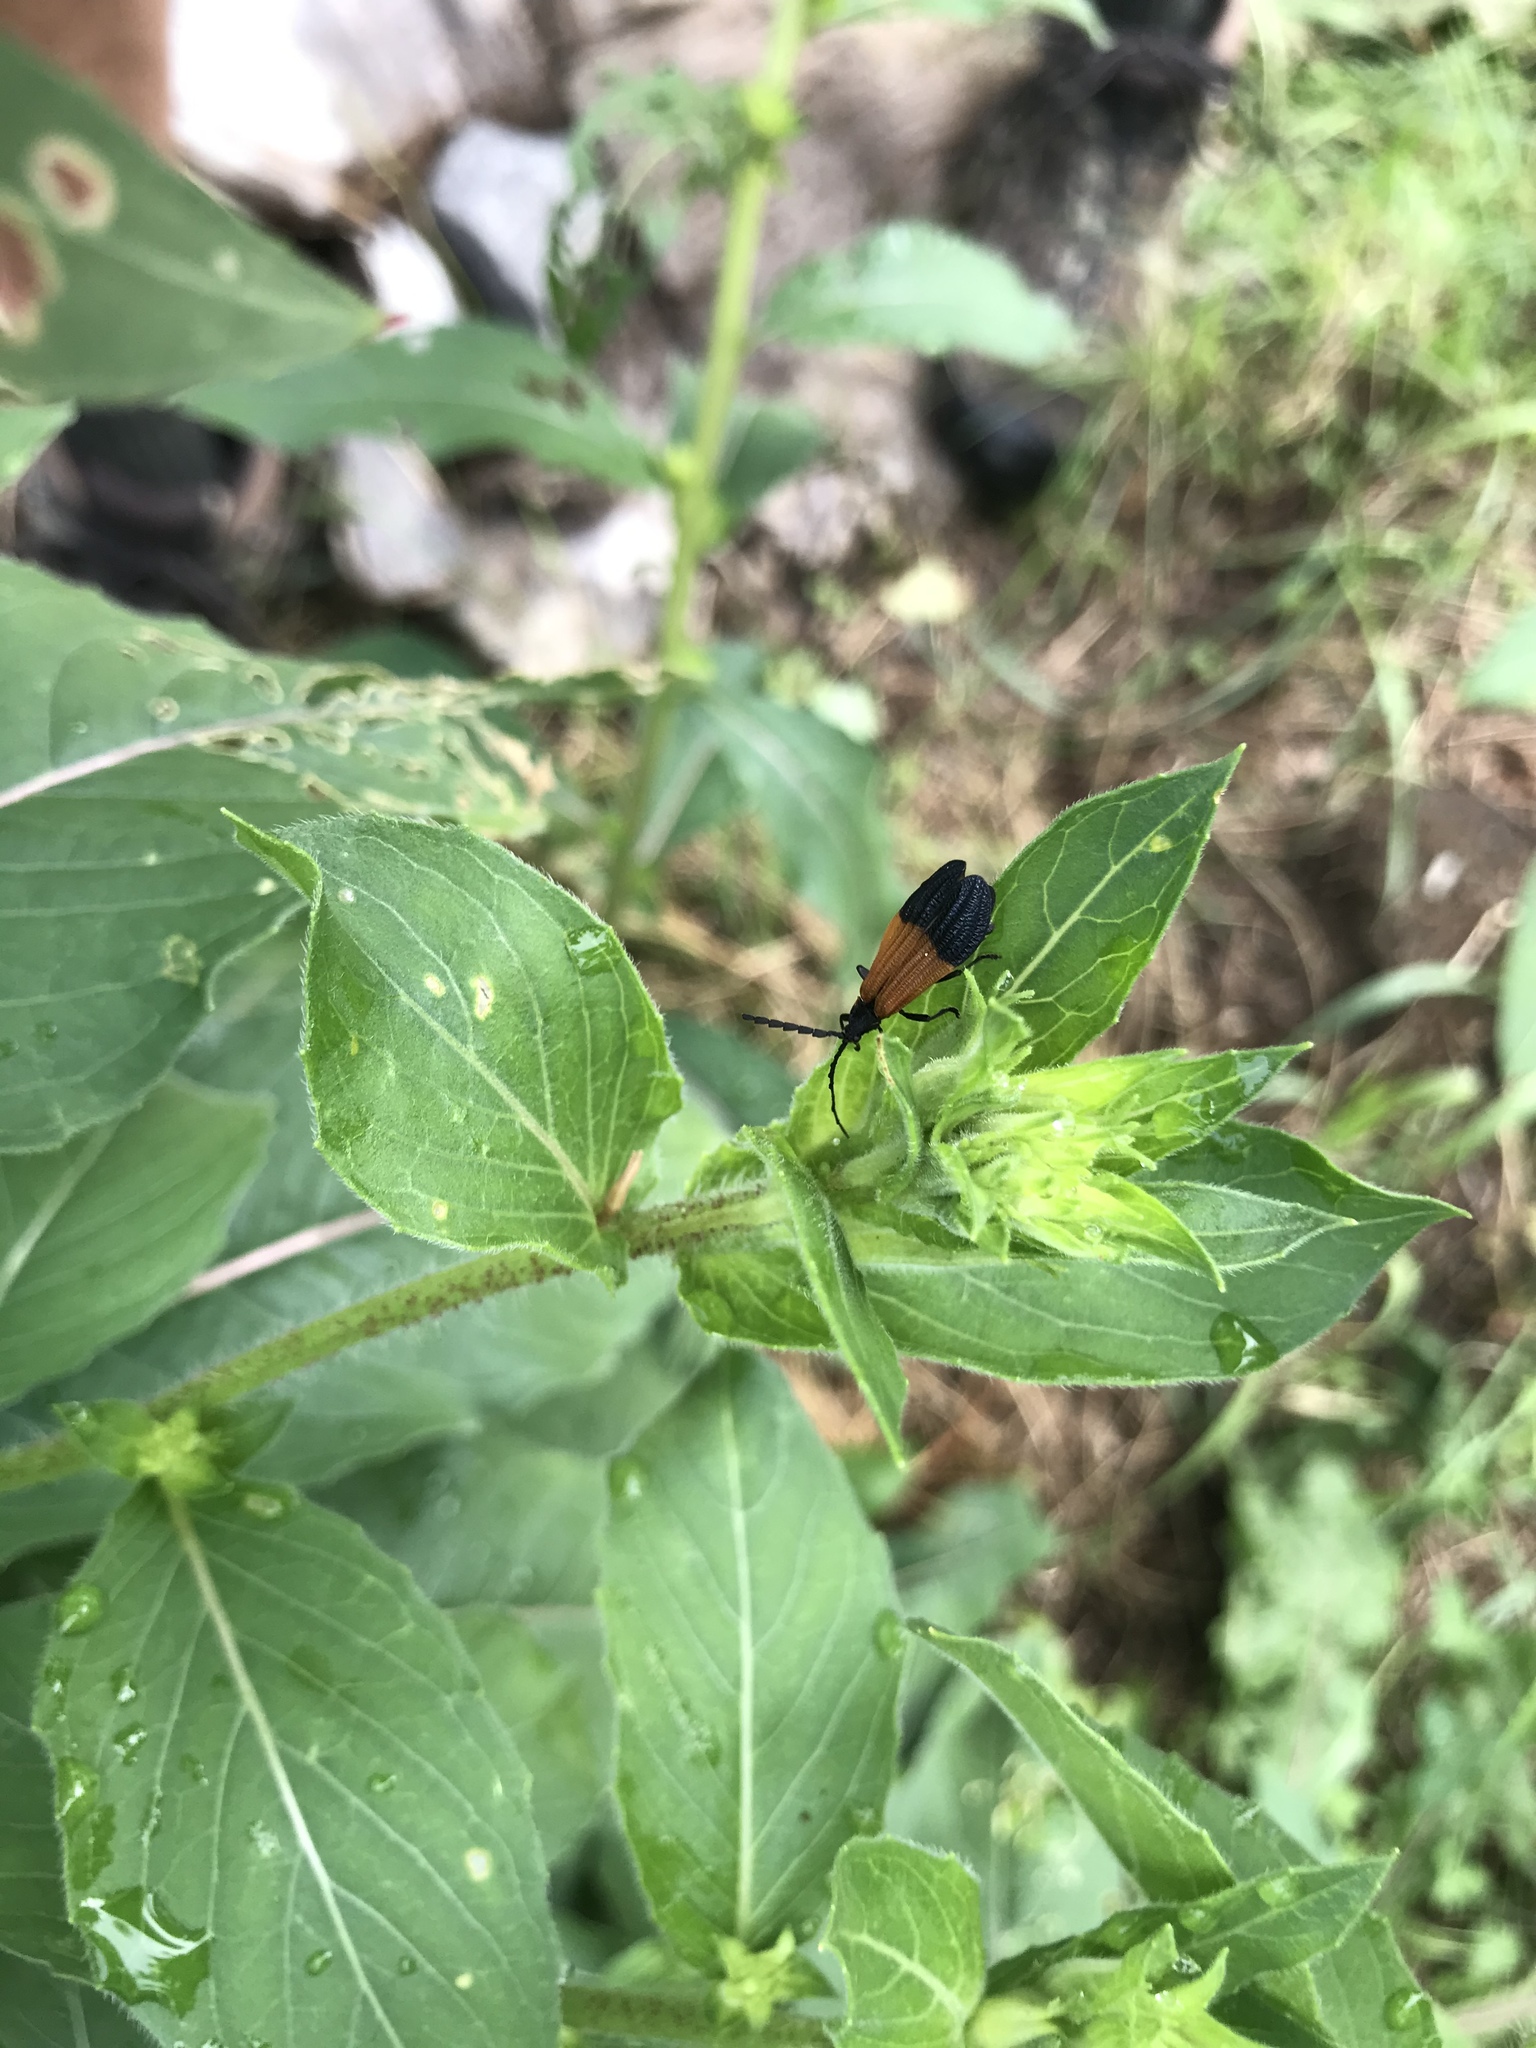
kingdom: Animalia
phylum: Arthropoda
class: Insecta
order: Coleoptera
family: Lycidae
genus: Calopteron
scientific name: Calopteron terminale
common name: End band net-winged beetle
